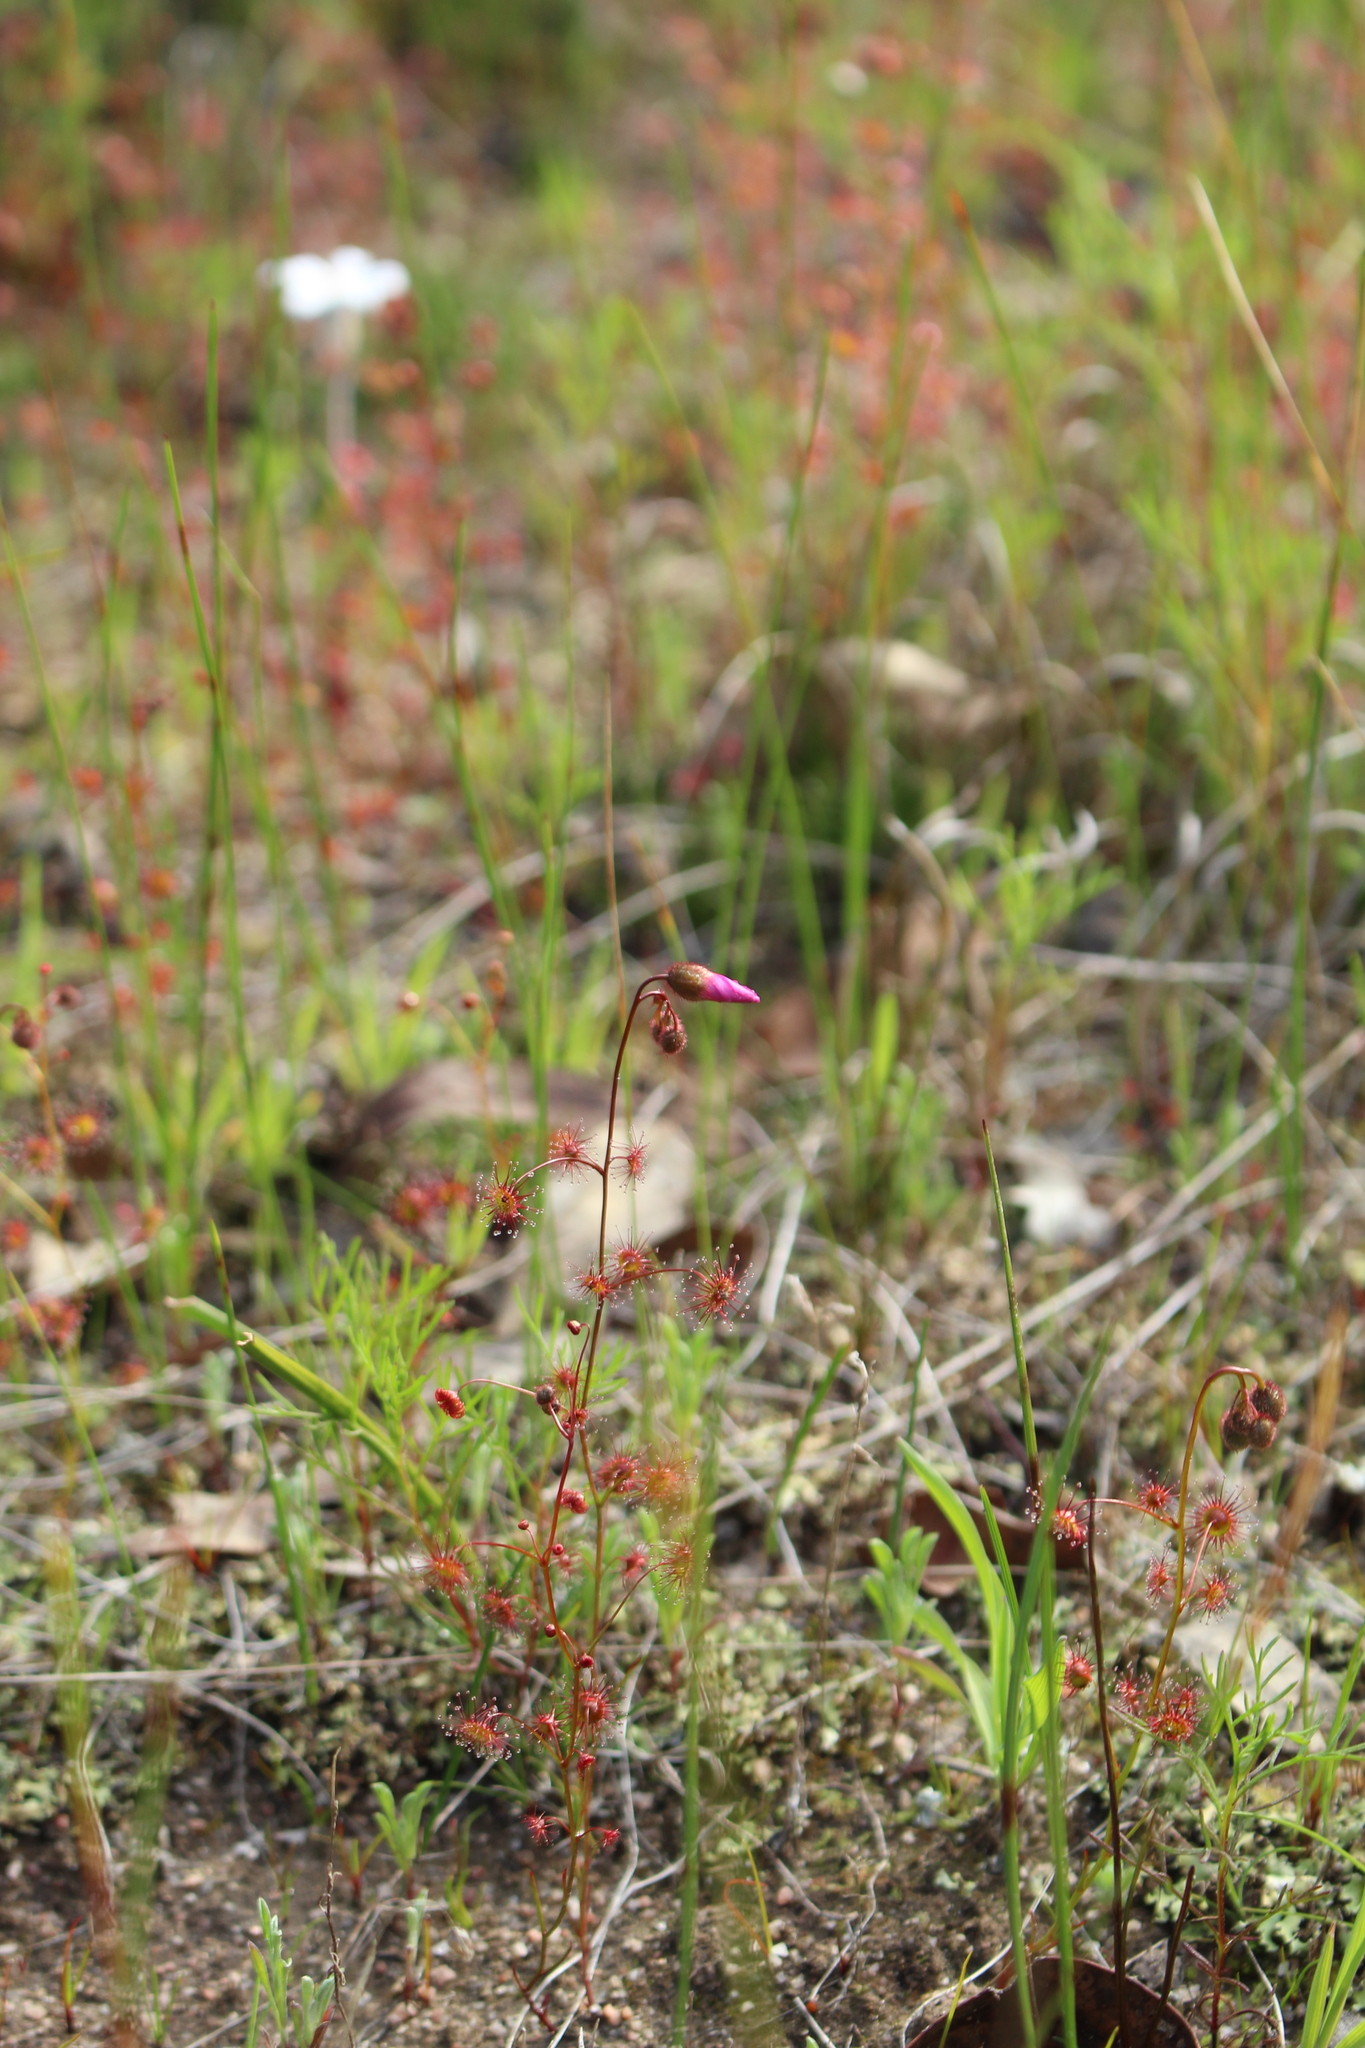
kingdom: Plantae
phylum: Tracheophyta
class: Magnoliopsida
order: Caryophyllales
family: Droseraceae
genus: Drosera
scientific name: Drosera menziesii
